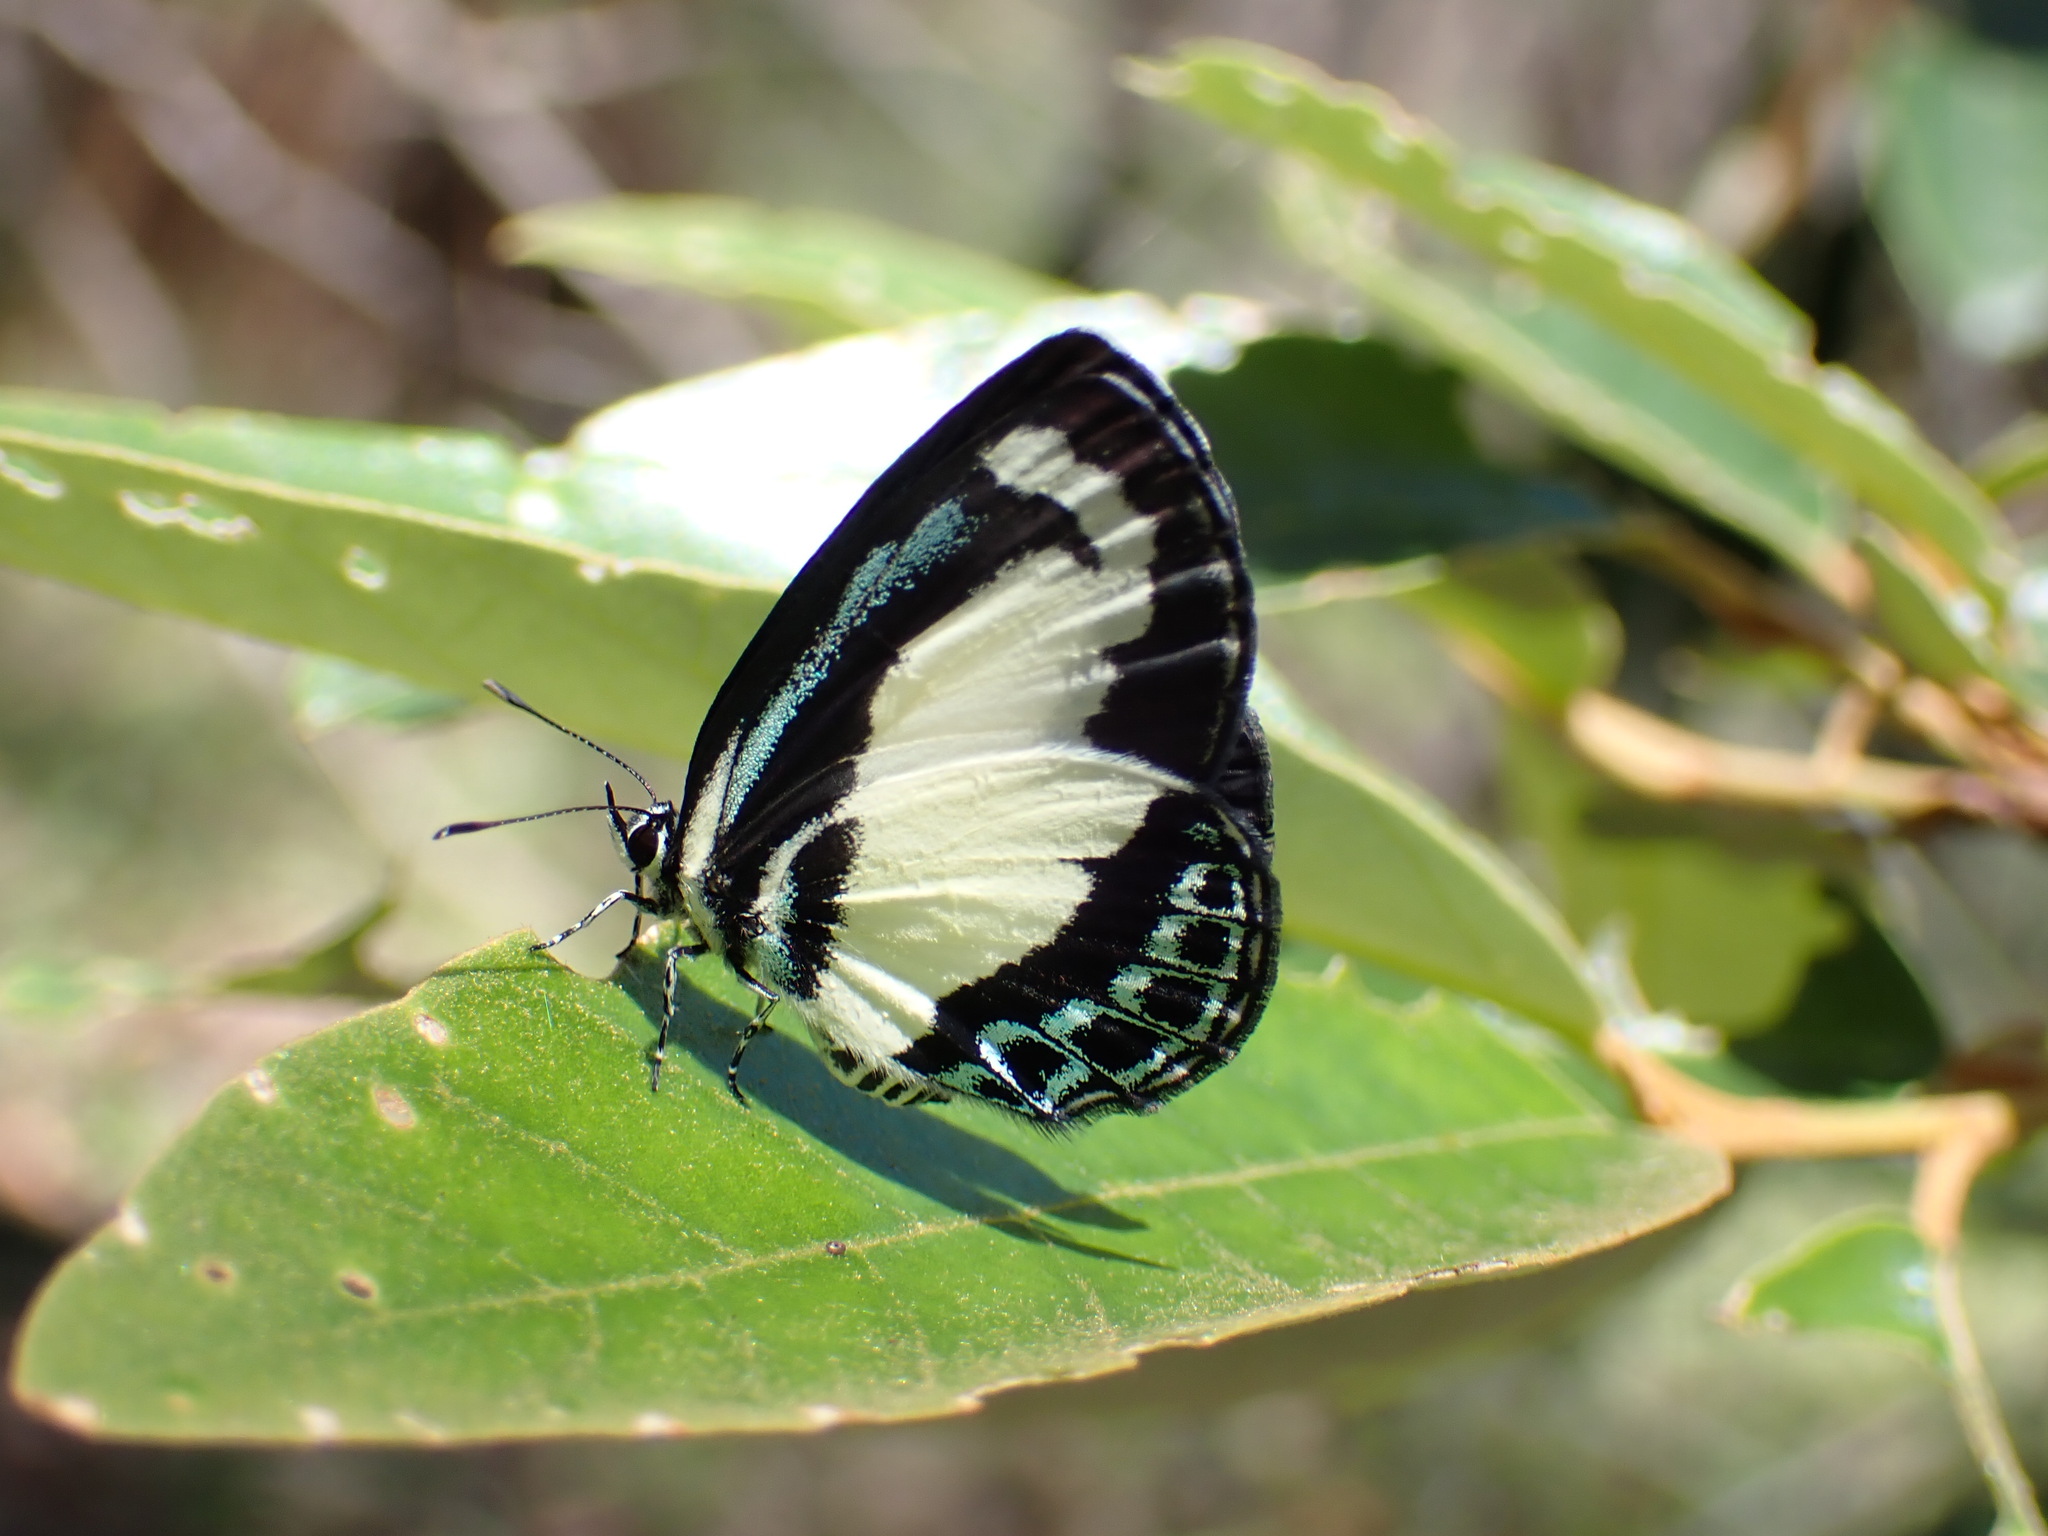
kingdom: Animalia
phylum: Arthropoda
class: Insecta
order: Lepidoptera
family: Lycaenidae
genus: Psychonotis
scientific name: Psychonotis caelius
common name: Small green banded blue
